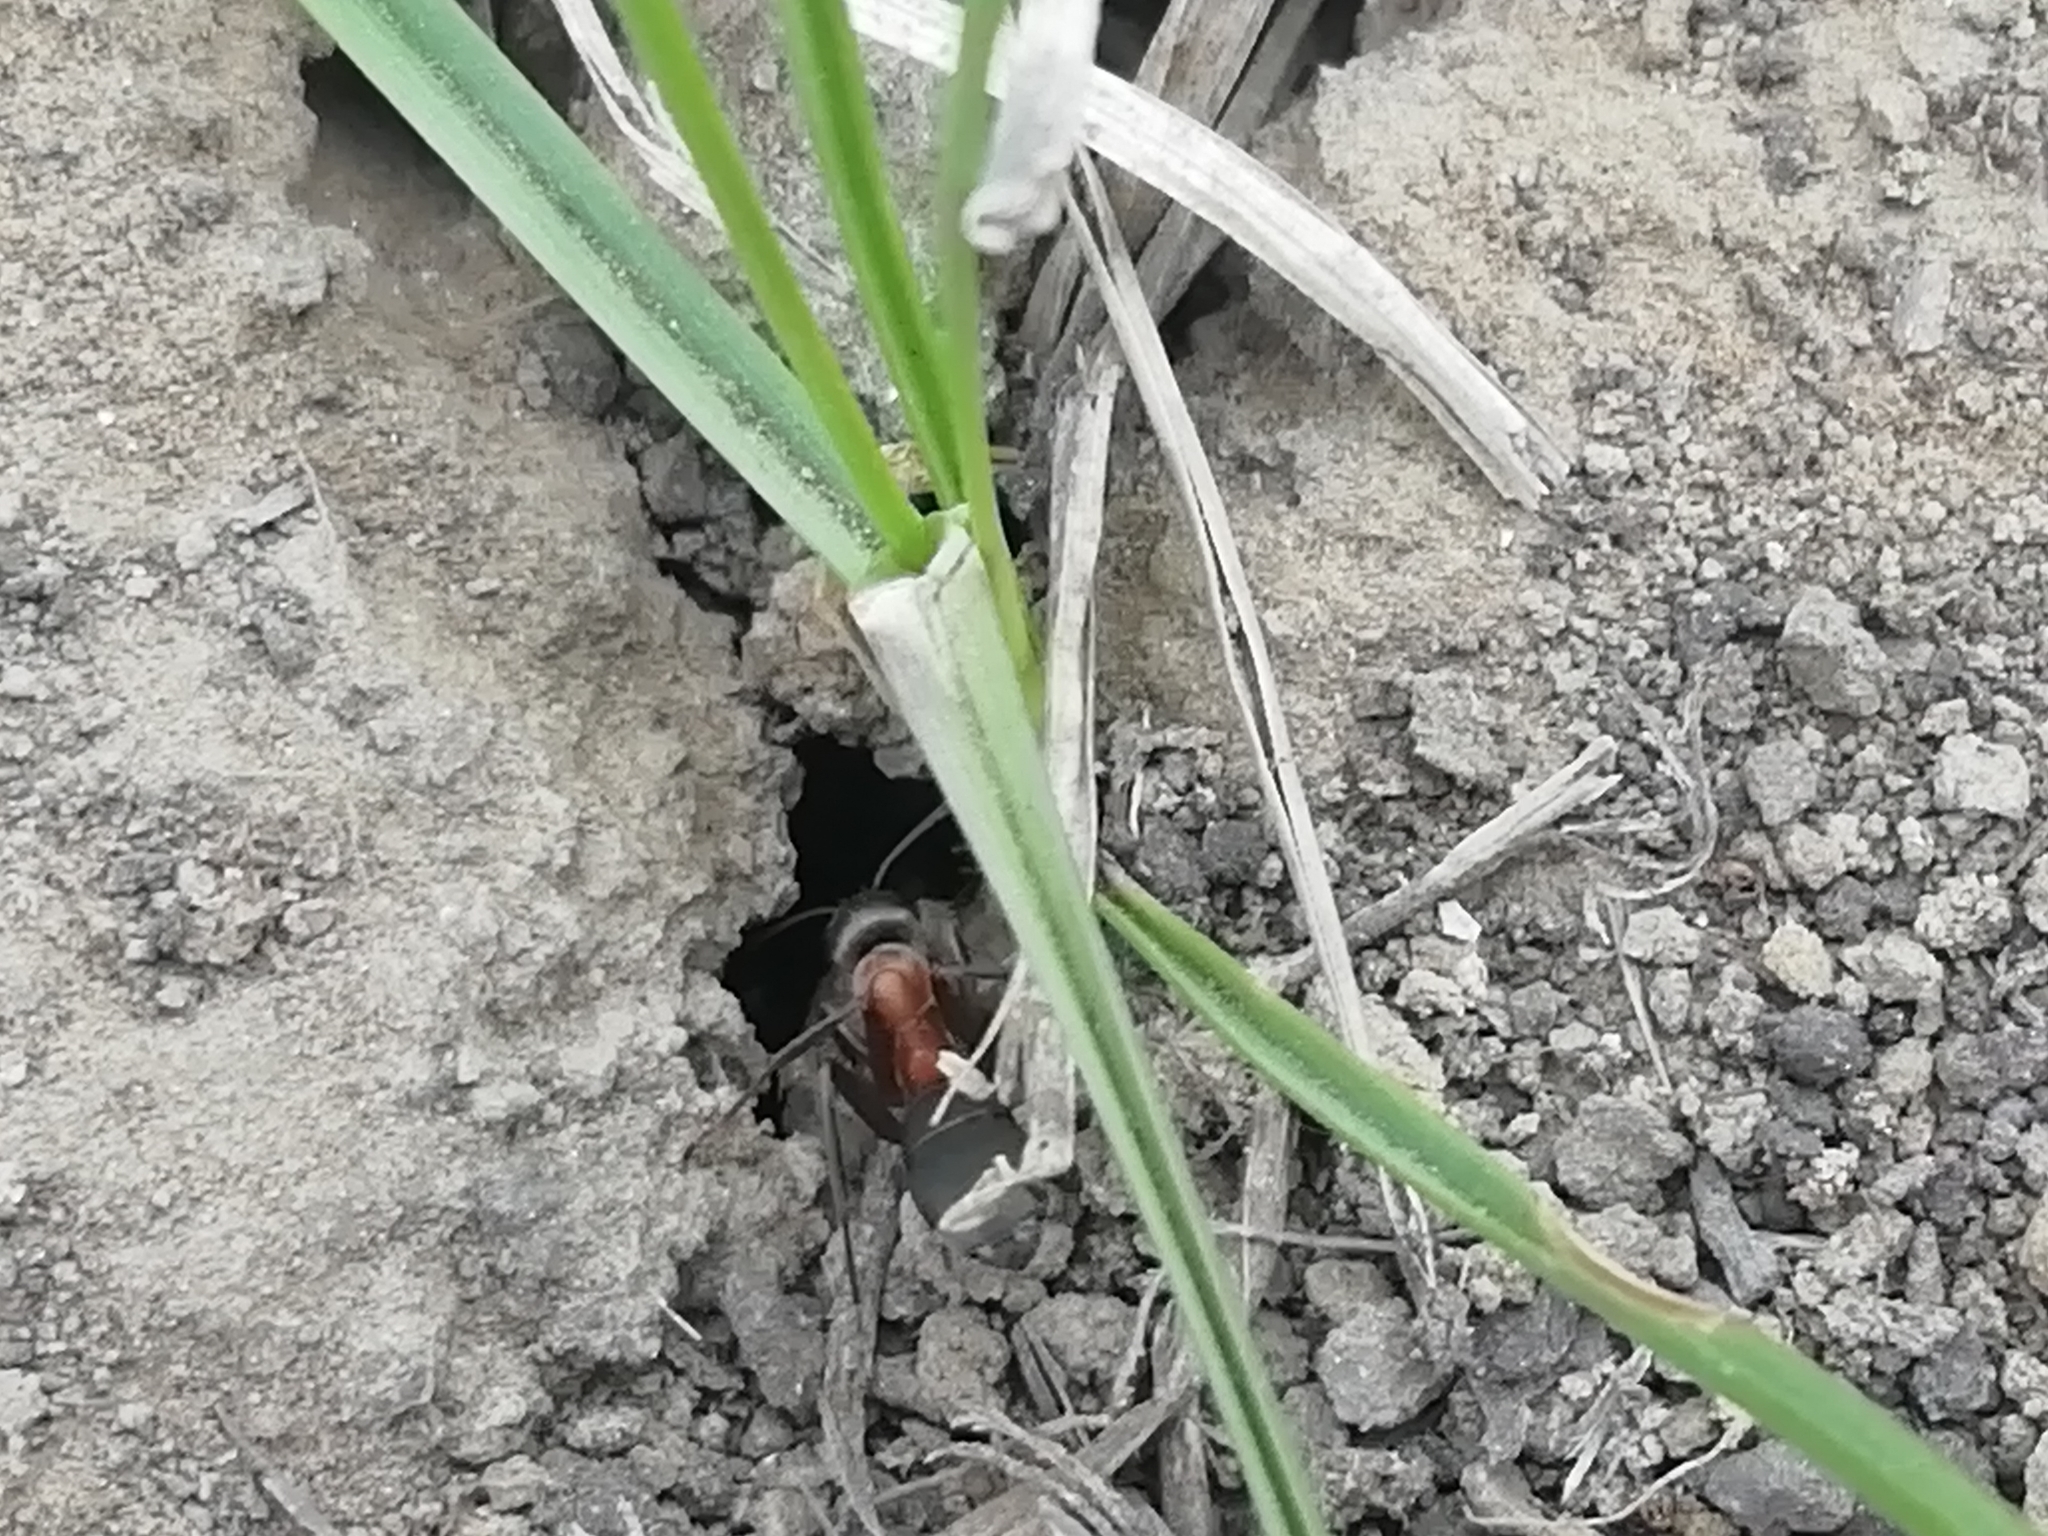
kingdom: Animalia
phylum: Arthropoda
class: Insecta
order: Hymenoptera
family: Formicidae
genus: Formica
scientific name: Formica
